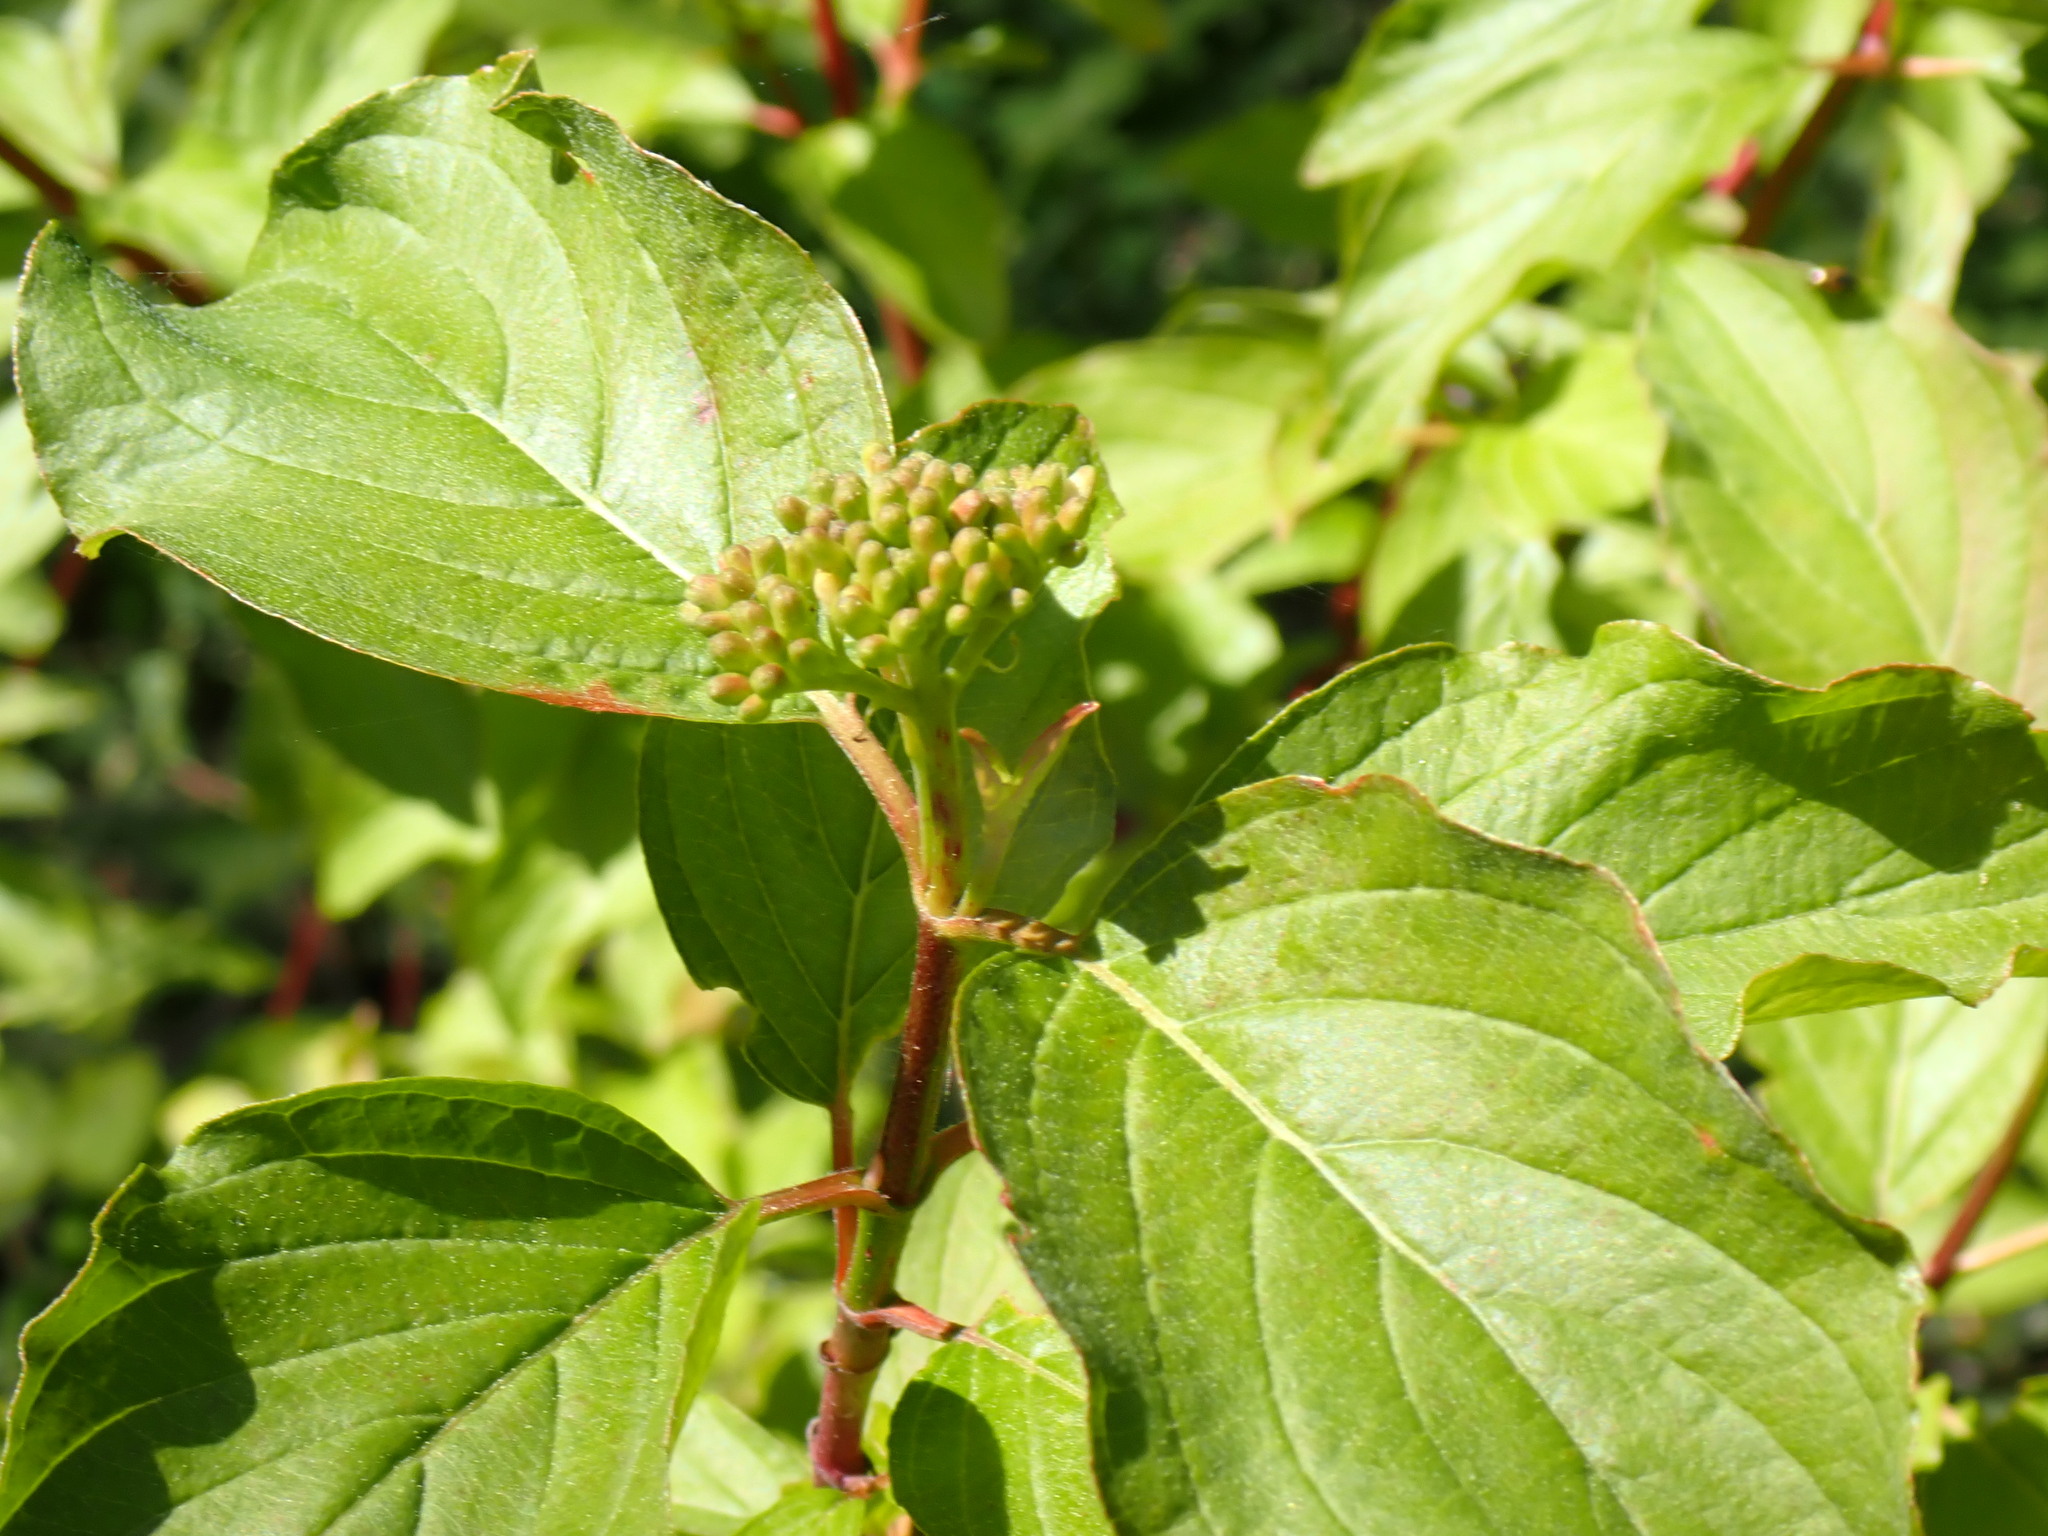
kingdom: Plantae
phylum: Tracheophyta
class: Magnoliopsida
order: Cornales
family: Cornaceae
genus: Cornus
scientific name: Cornus sericea
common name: Red-osier dogwood
